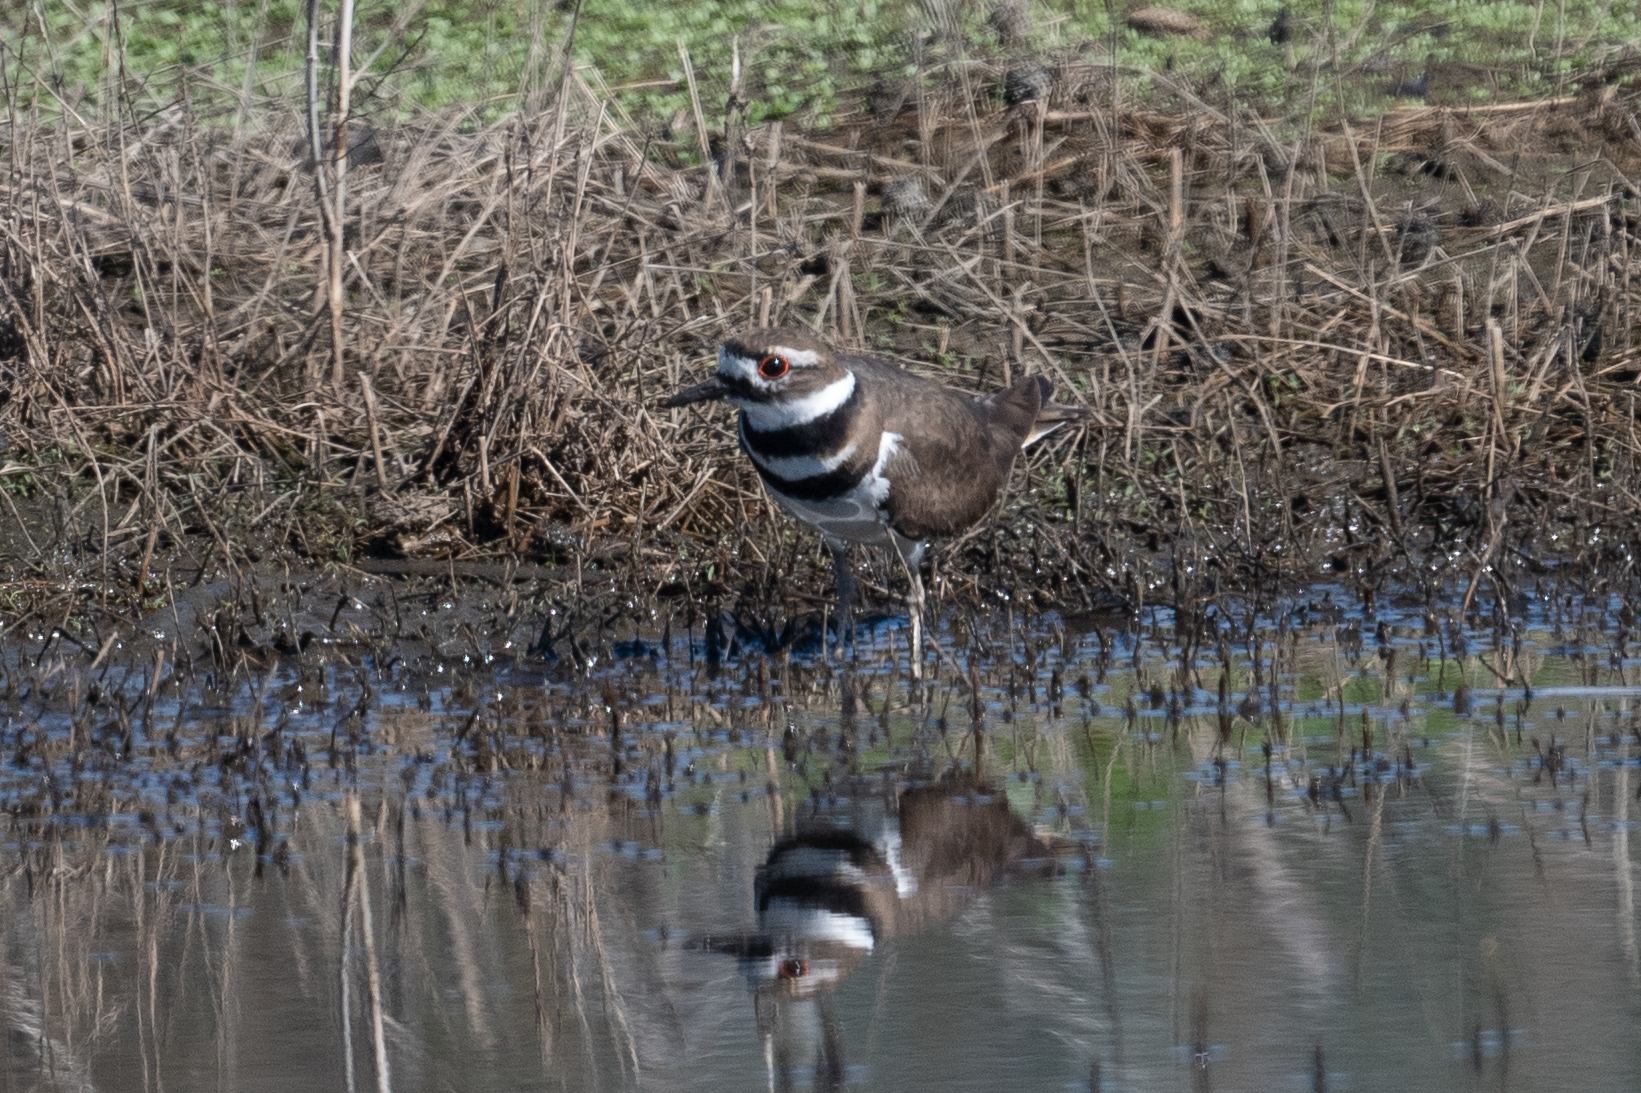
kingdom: Animalia
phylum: Chordata
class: Aves
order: Charadriiformes
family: Charadriidae
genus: Charadrius
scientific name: Charadrius vociferus
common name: Killdeer
